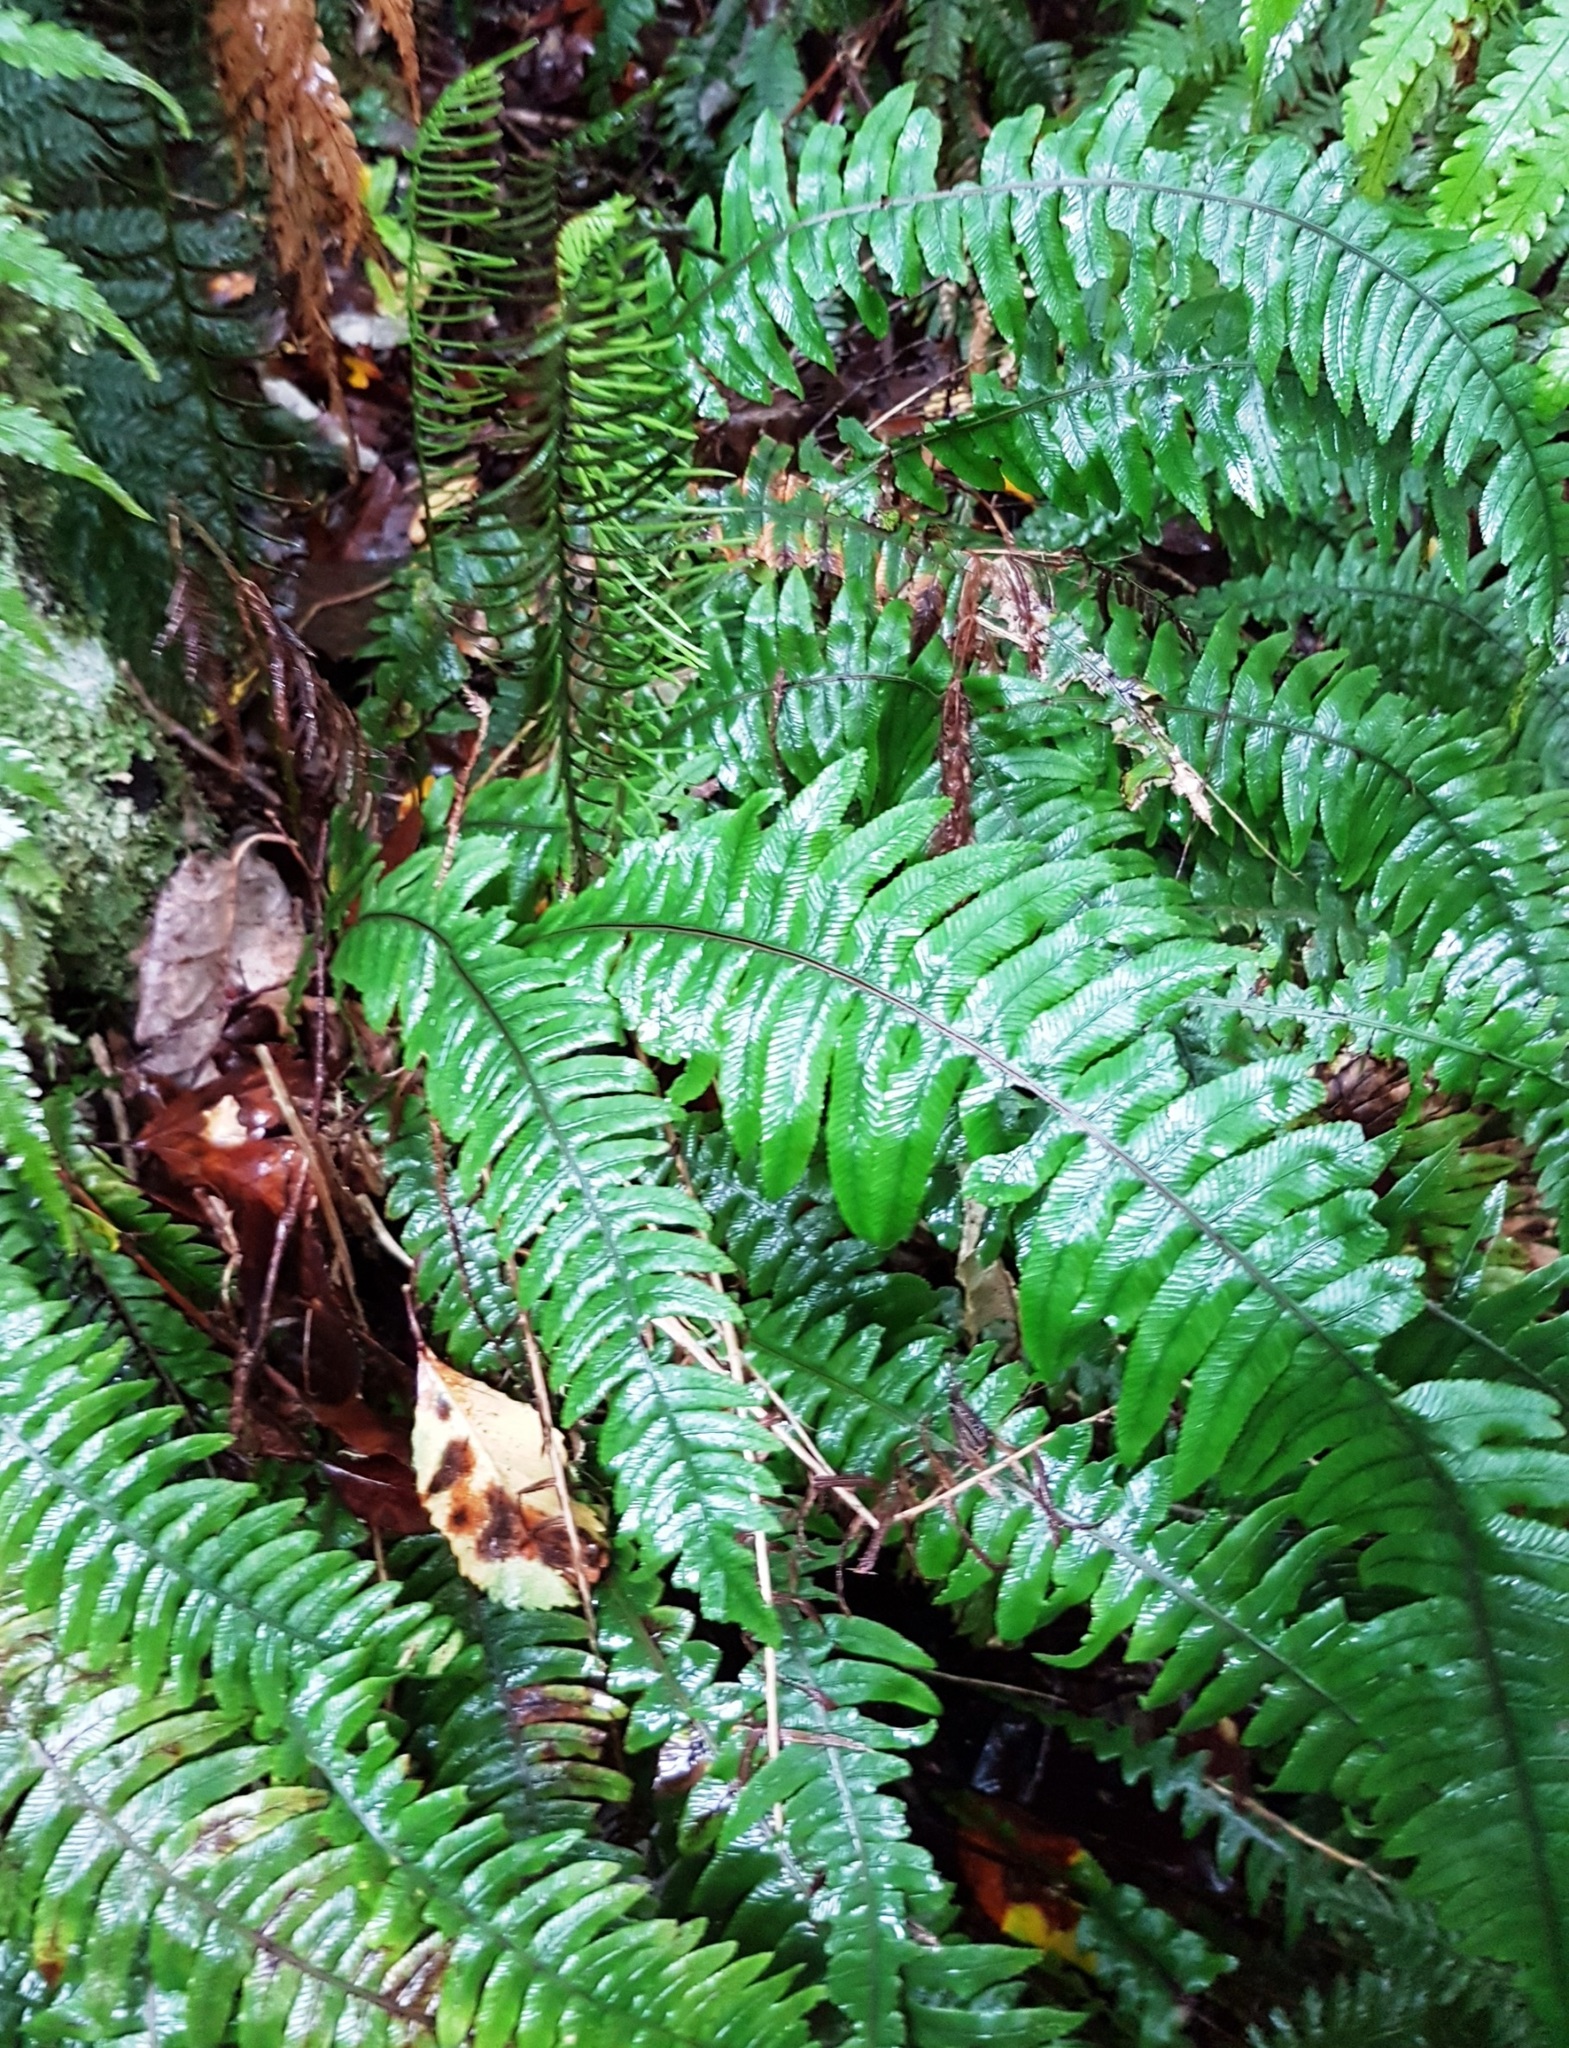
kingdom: Plantae
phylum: Tracheophyta
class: Polypodiopsida
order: Polypodiales
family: Blechnaceae
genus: Austroblechnum
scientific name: Austroblechnum lanceolatum
